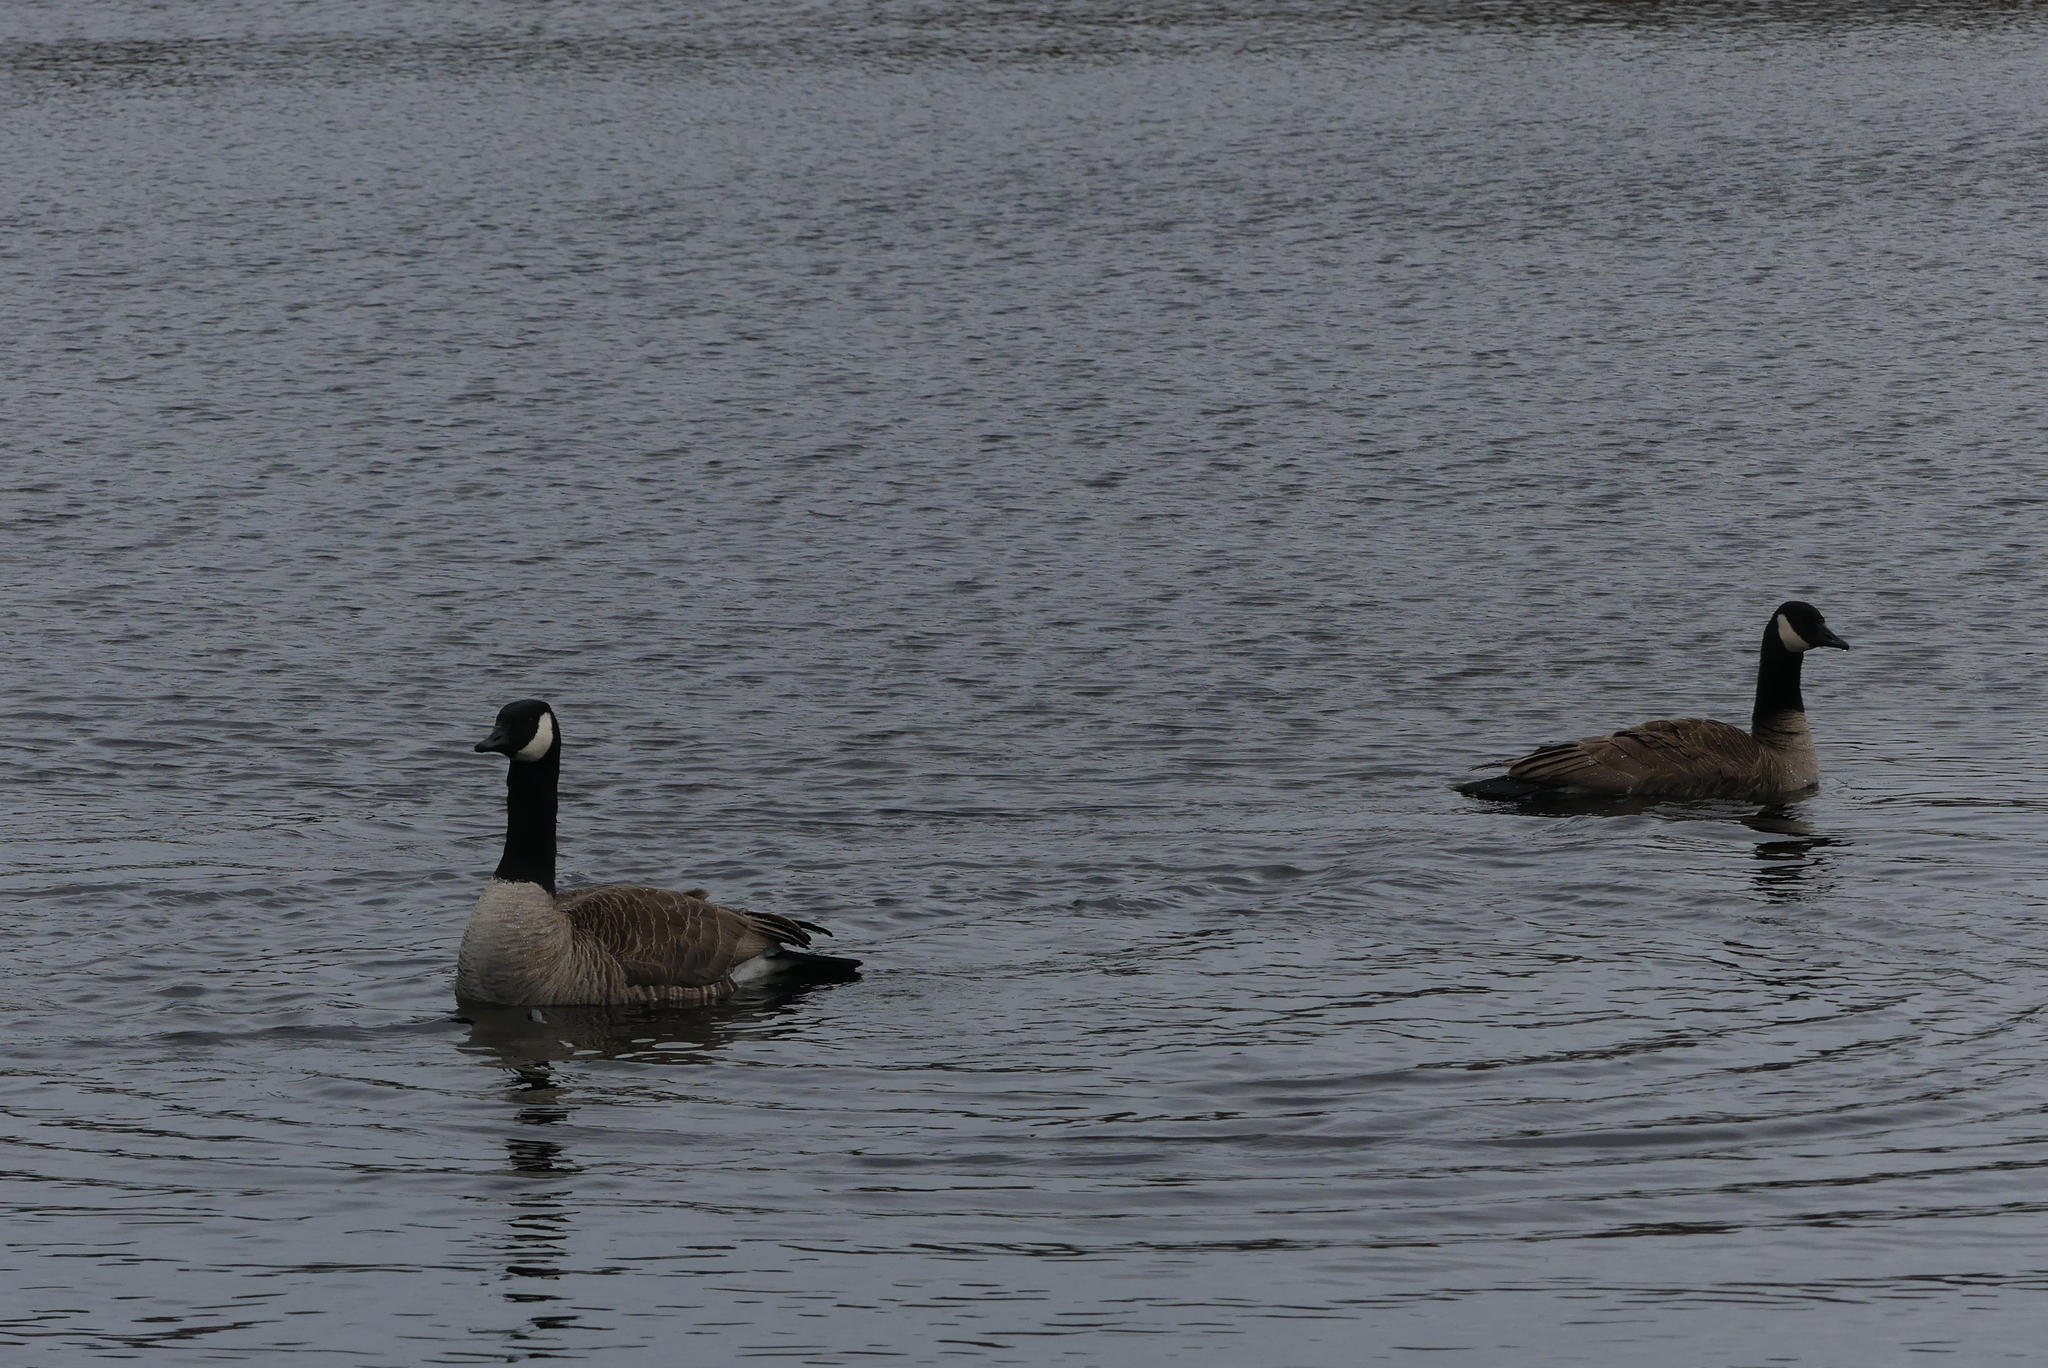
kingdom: Animalia
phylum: Chordata
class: Aves
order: Anseriformes
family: Anatidae
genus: Branta
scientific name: Branta canadensis
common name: Canada goose
